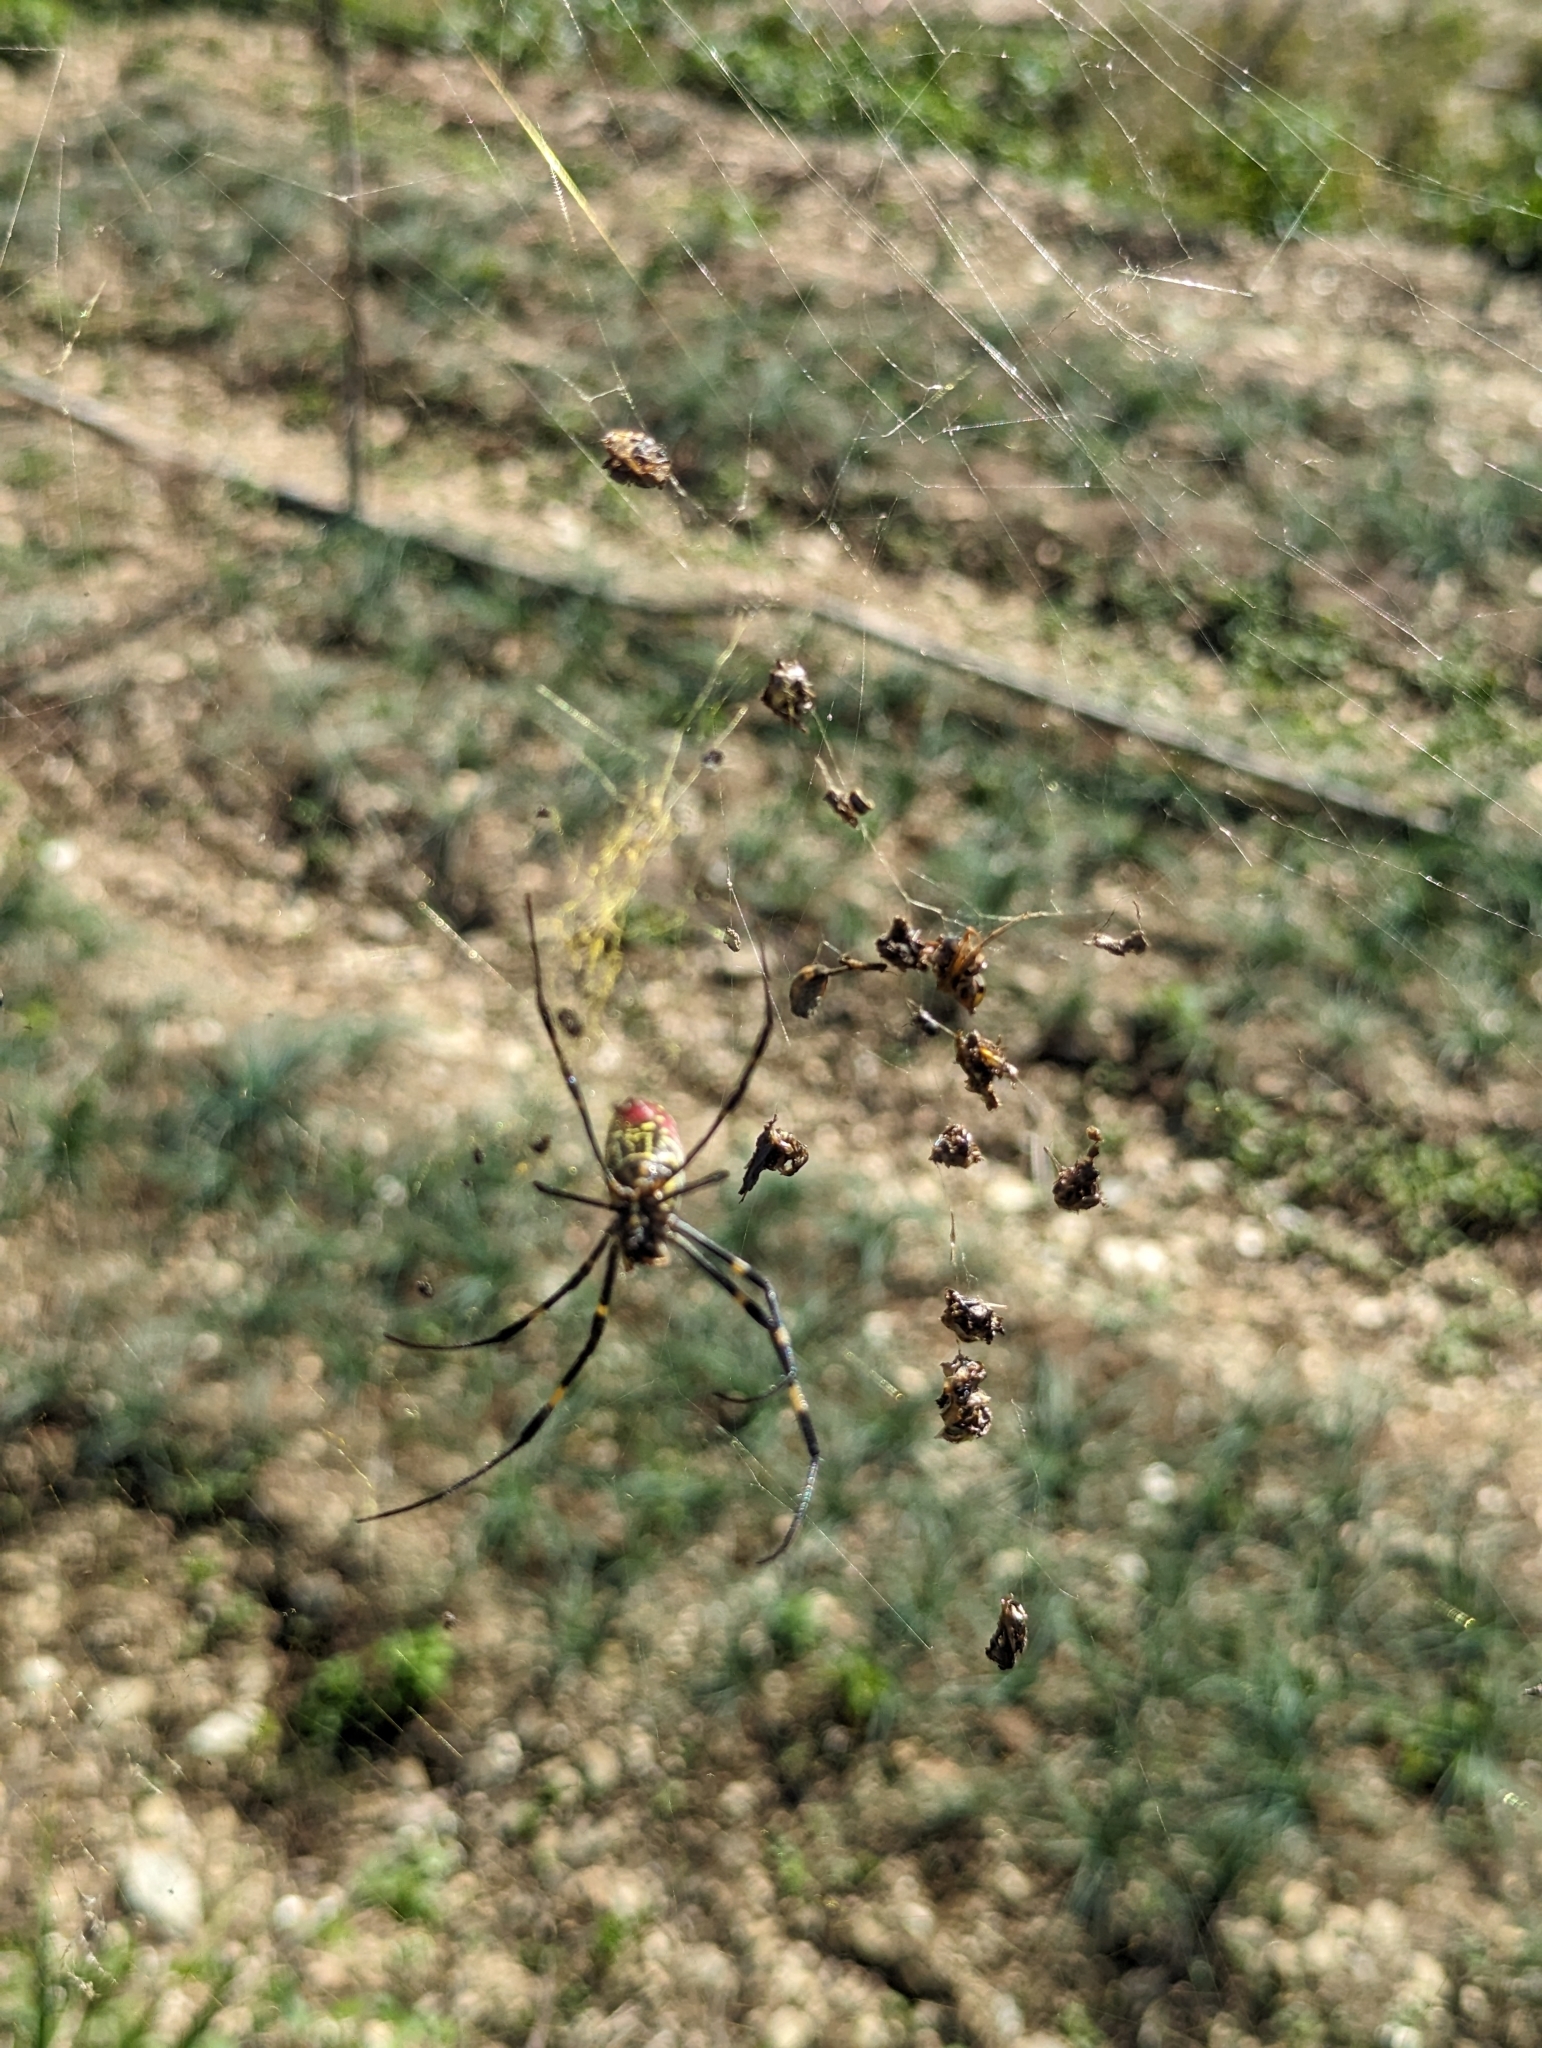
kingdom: Animalia
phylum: Arthropoda
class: Arachnida
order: Araneae
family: Araneidae
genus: Trichonephila
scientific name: Trichonephila clavata
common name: Jorō spider
